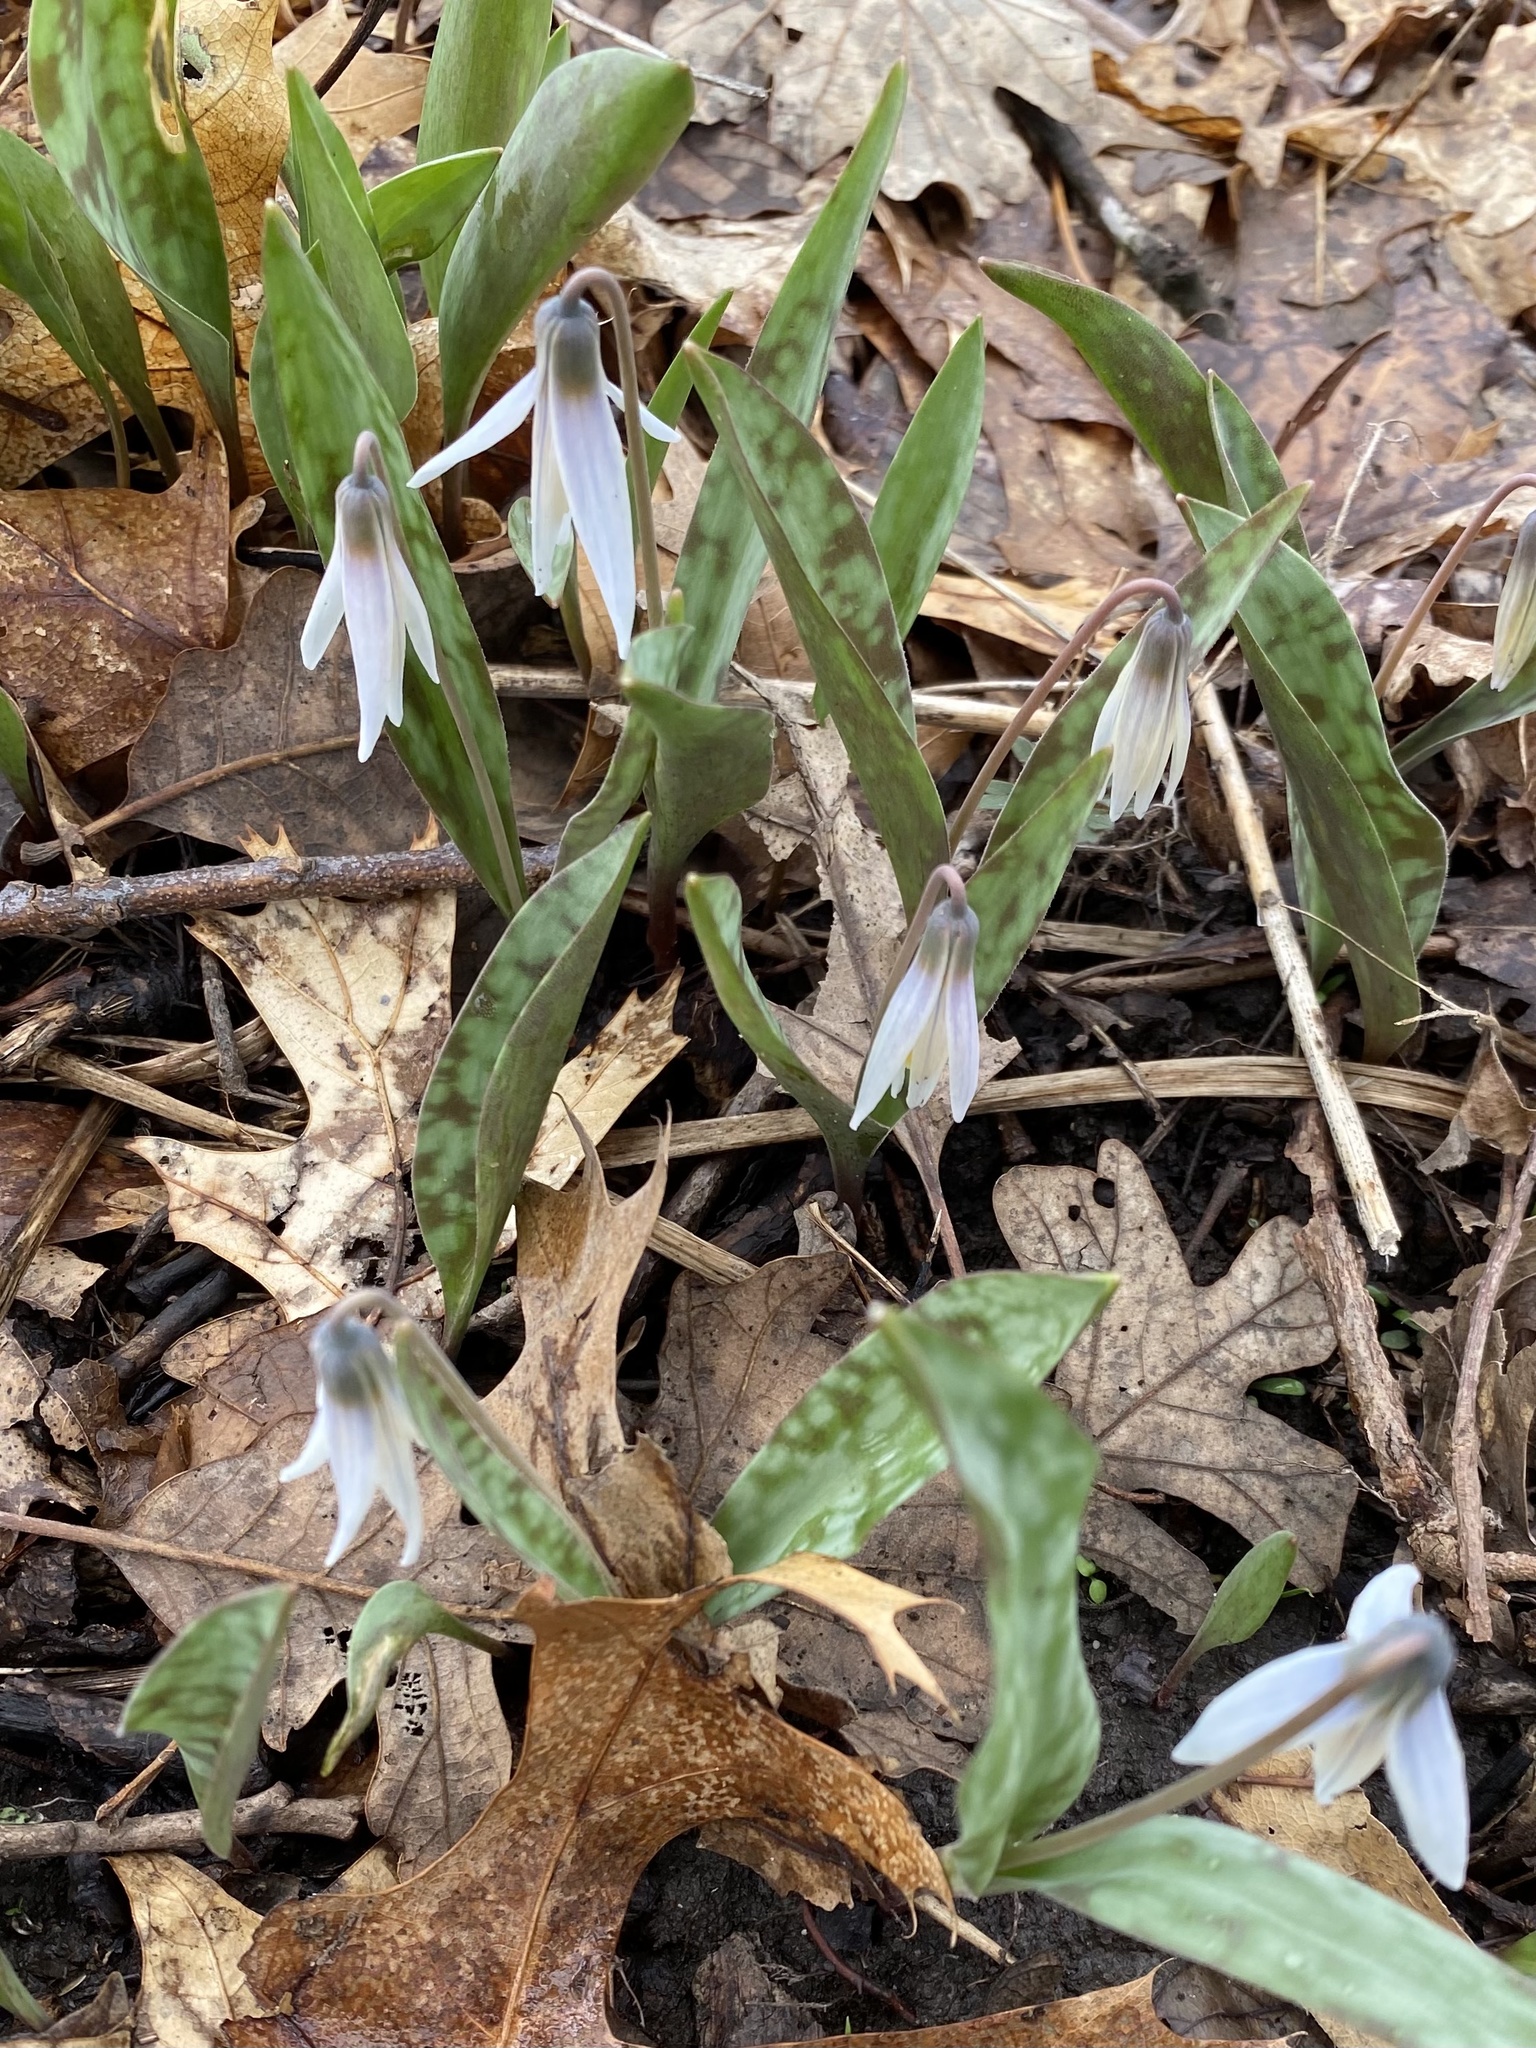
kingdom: Plantae
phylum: Tracheophyta
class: Liliopsida
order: Liliales
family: Liliaceae
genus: Erythronium
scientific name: Erythronium albidum
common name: White trout-lily
